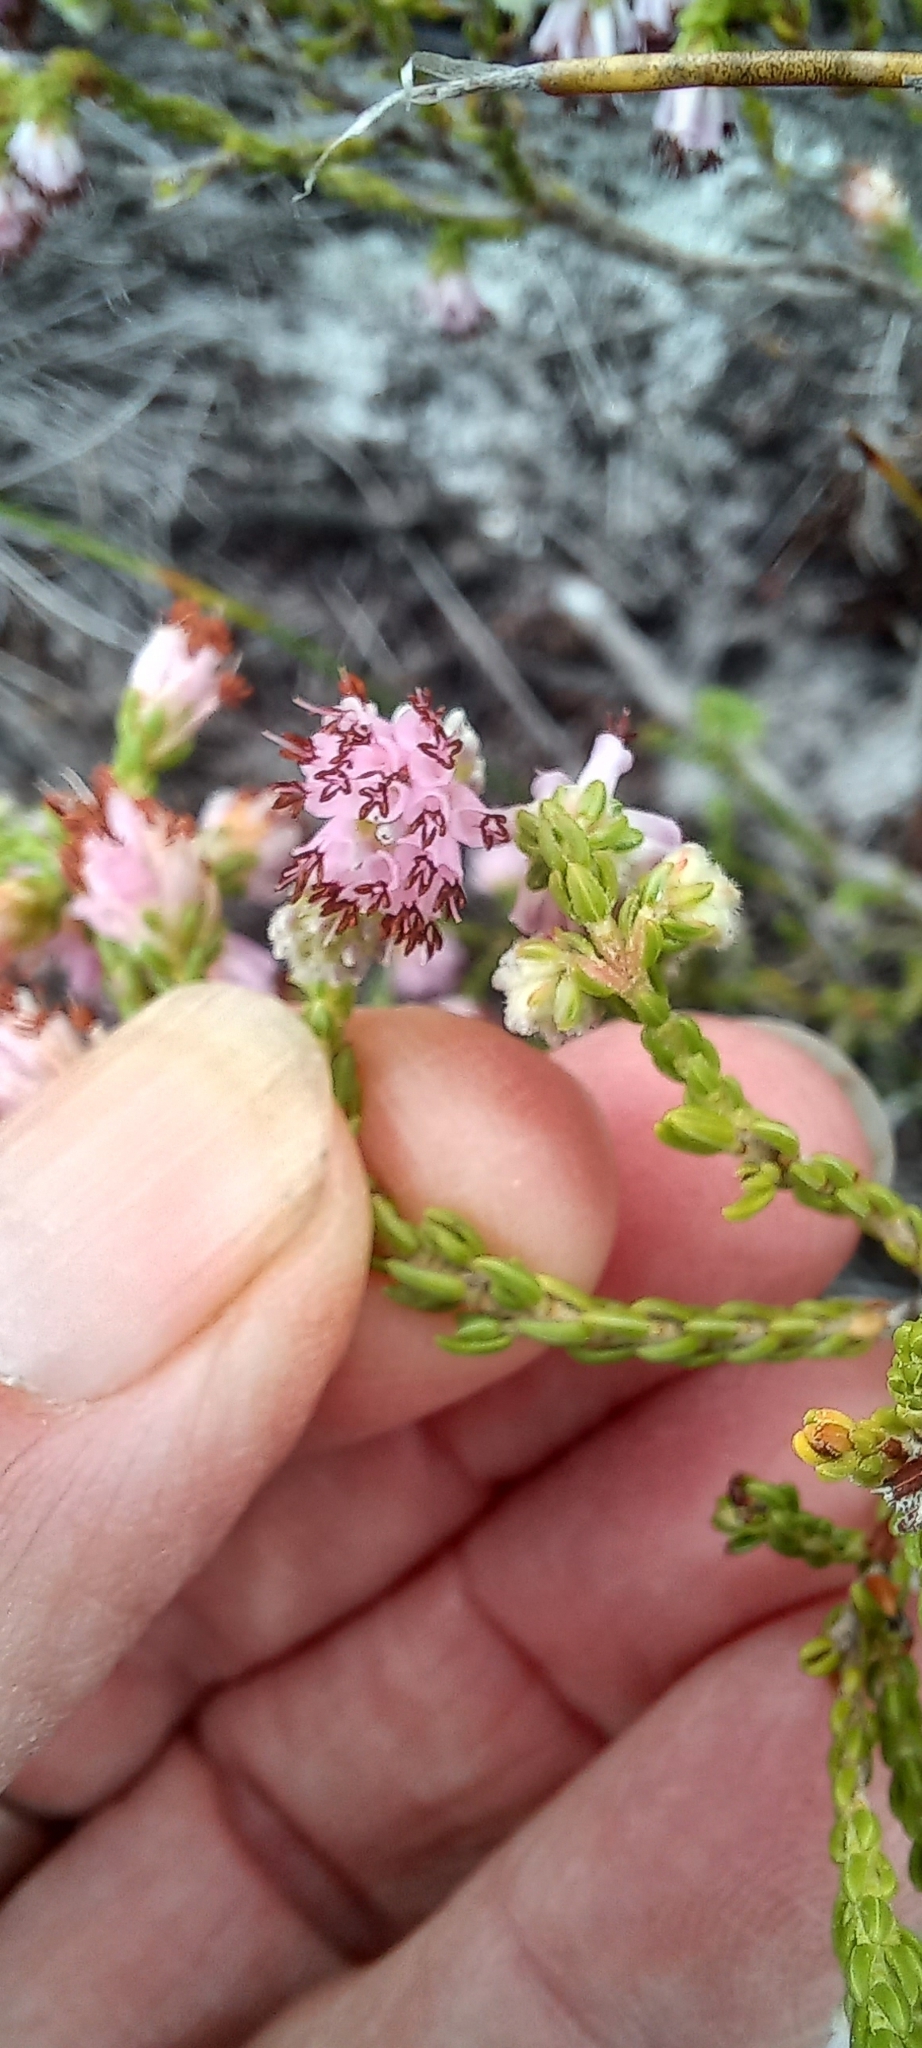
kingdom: Plantae
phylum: Tracheophyta
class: Magnoliopsida
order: Ericales
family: Ericaceae
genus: Erica
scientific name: Erica labialis
